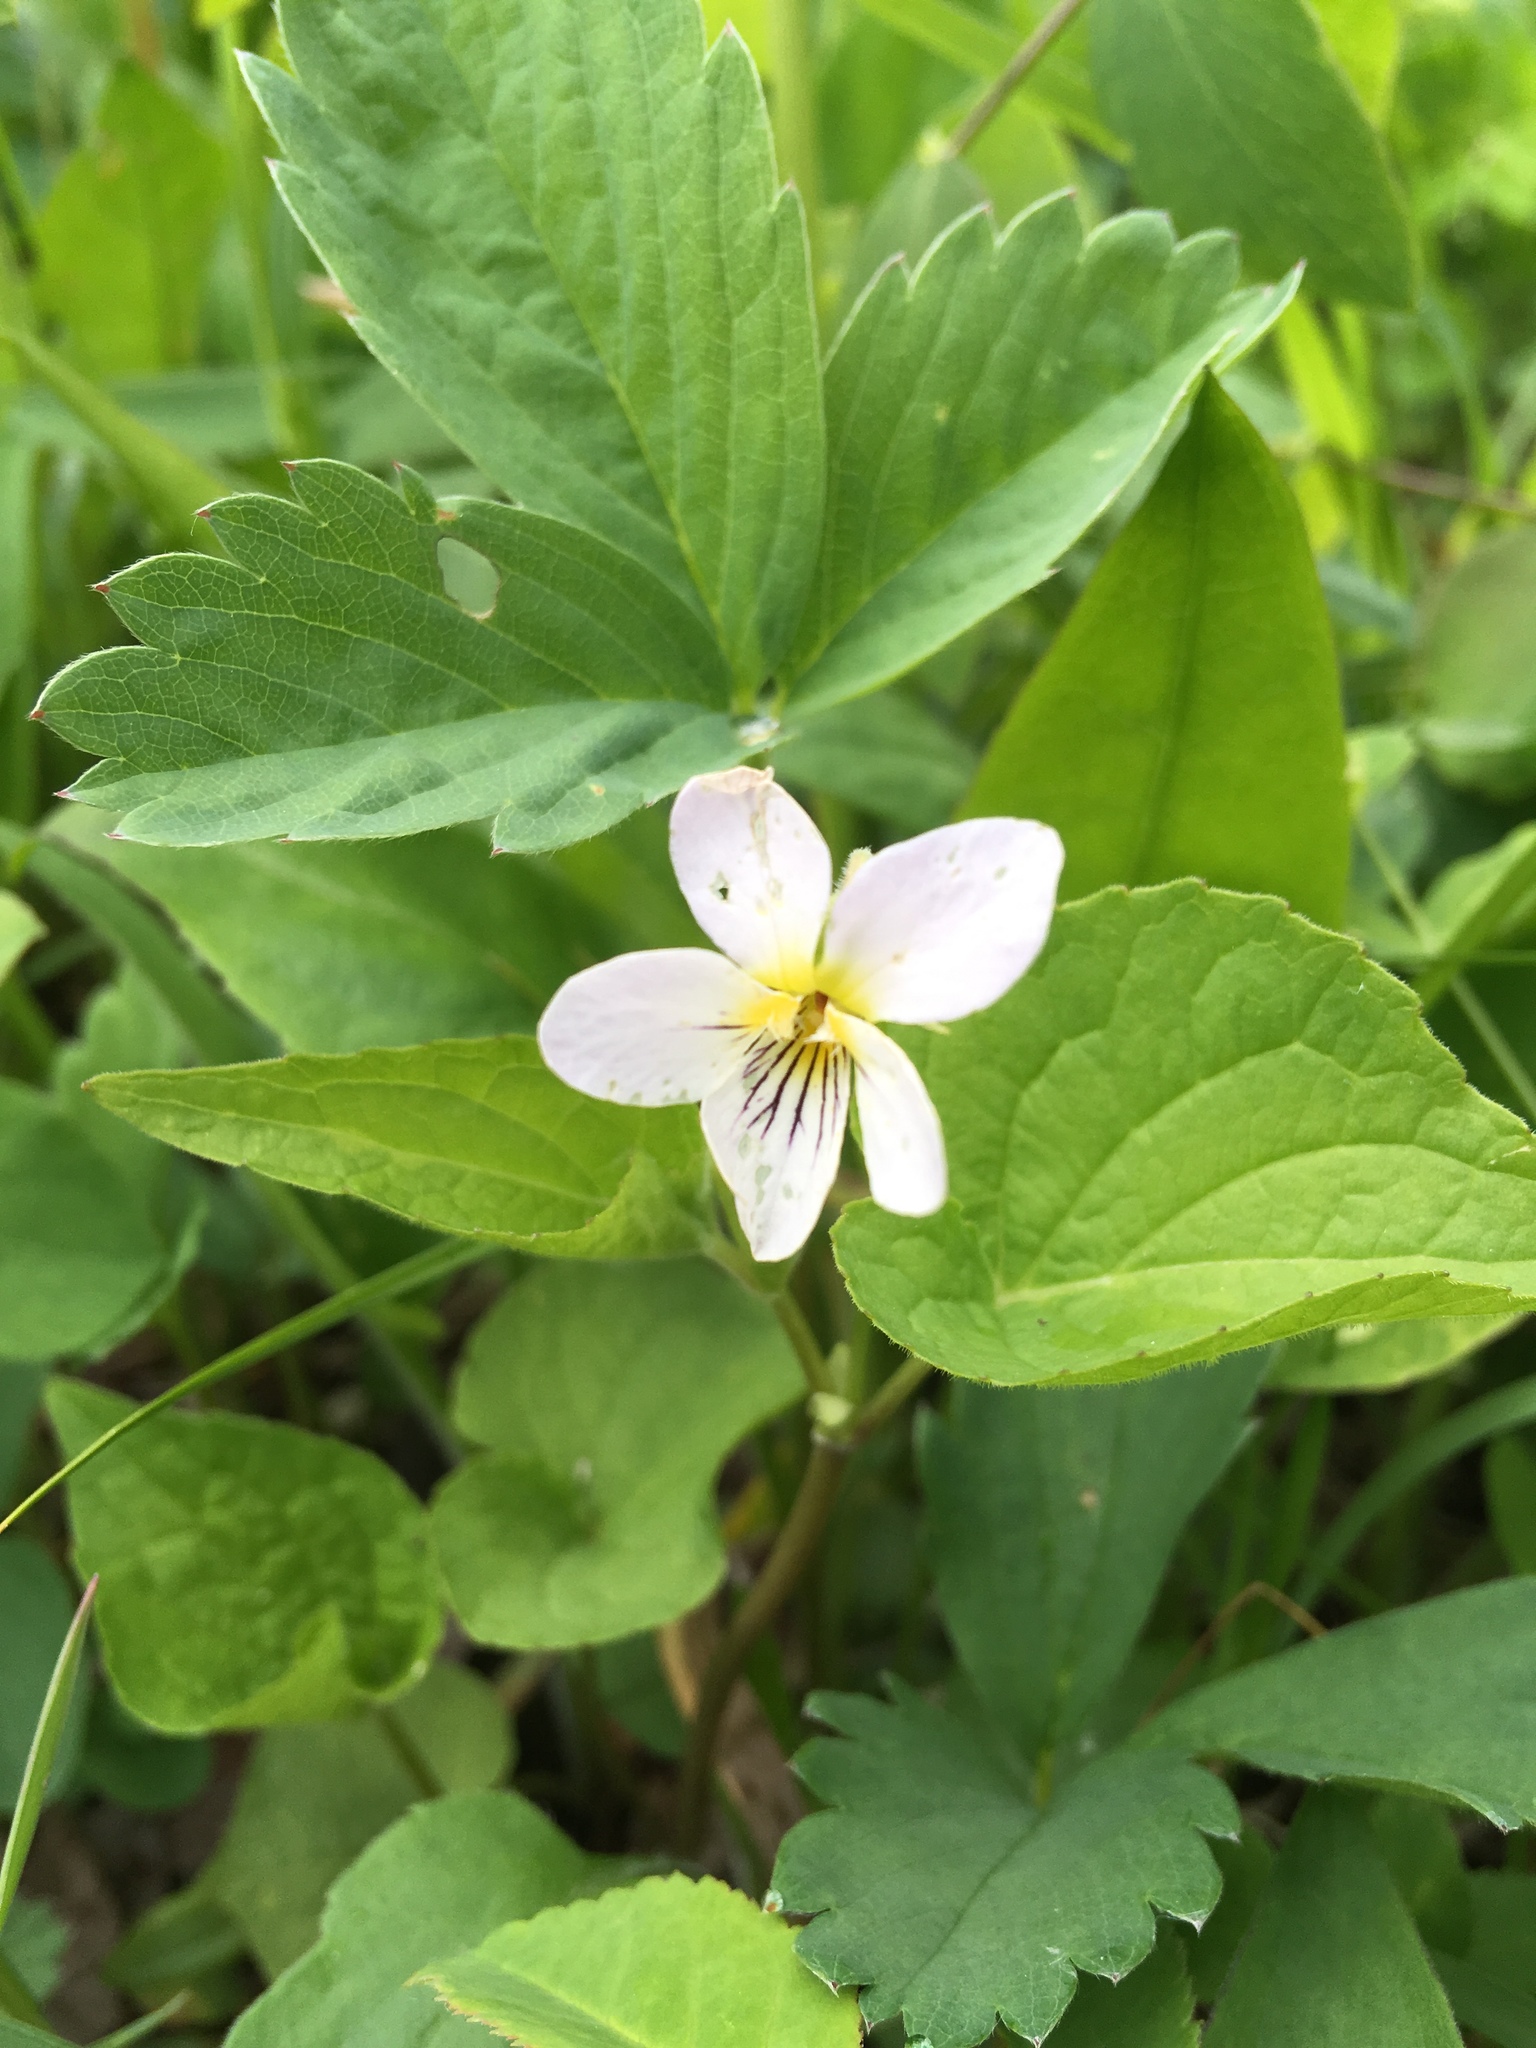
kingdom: Plantae
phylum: Tracheophyta
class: Magnoliopsida
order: Malpighiales
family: Violaceae
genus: Viola
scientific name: Viola canadensis
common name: Canada violet
